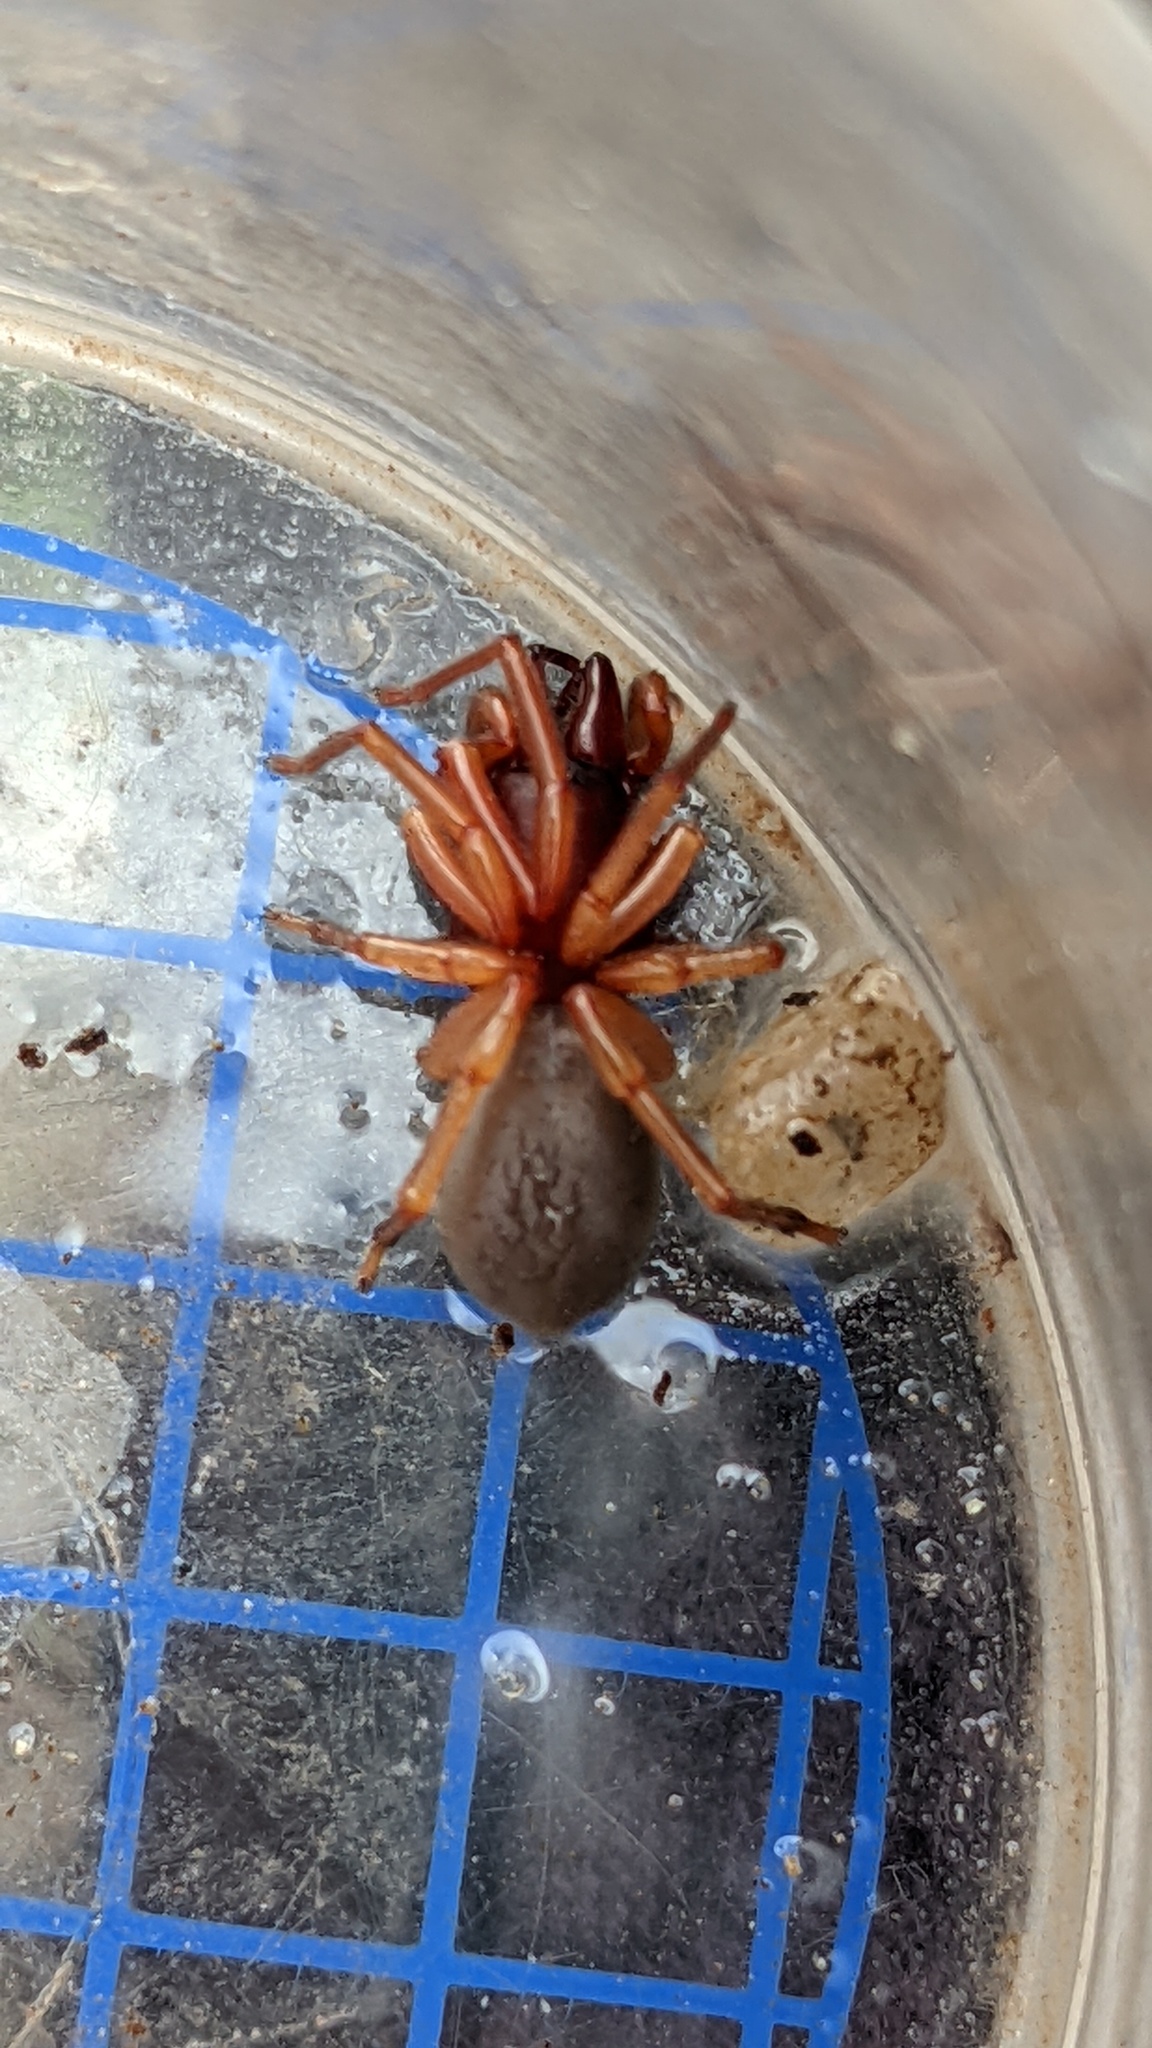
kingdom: Animalia
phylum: Arthropoda
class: Arachnida
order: Araneae
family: Dysderidae
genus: Dysdera
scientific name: Dysdera
